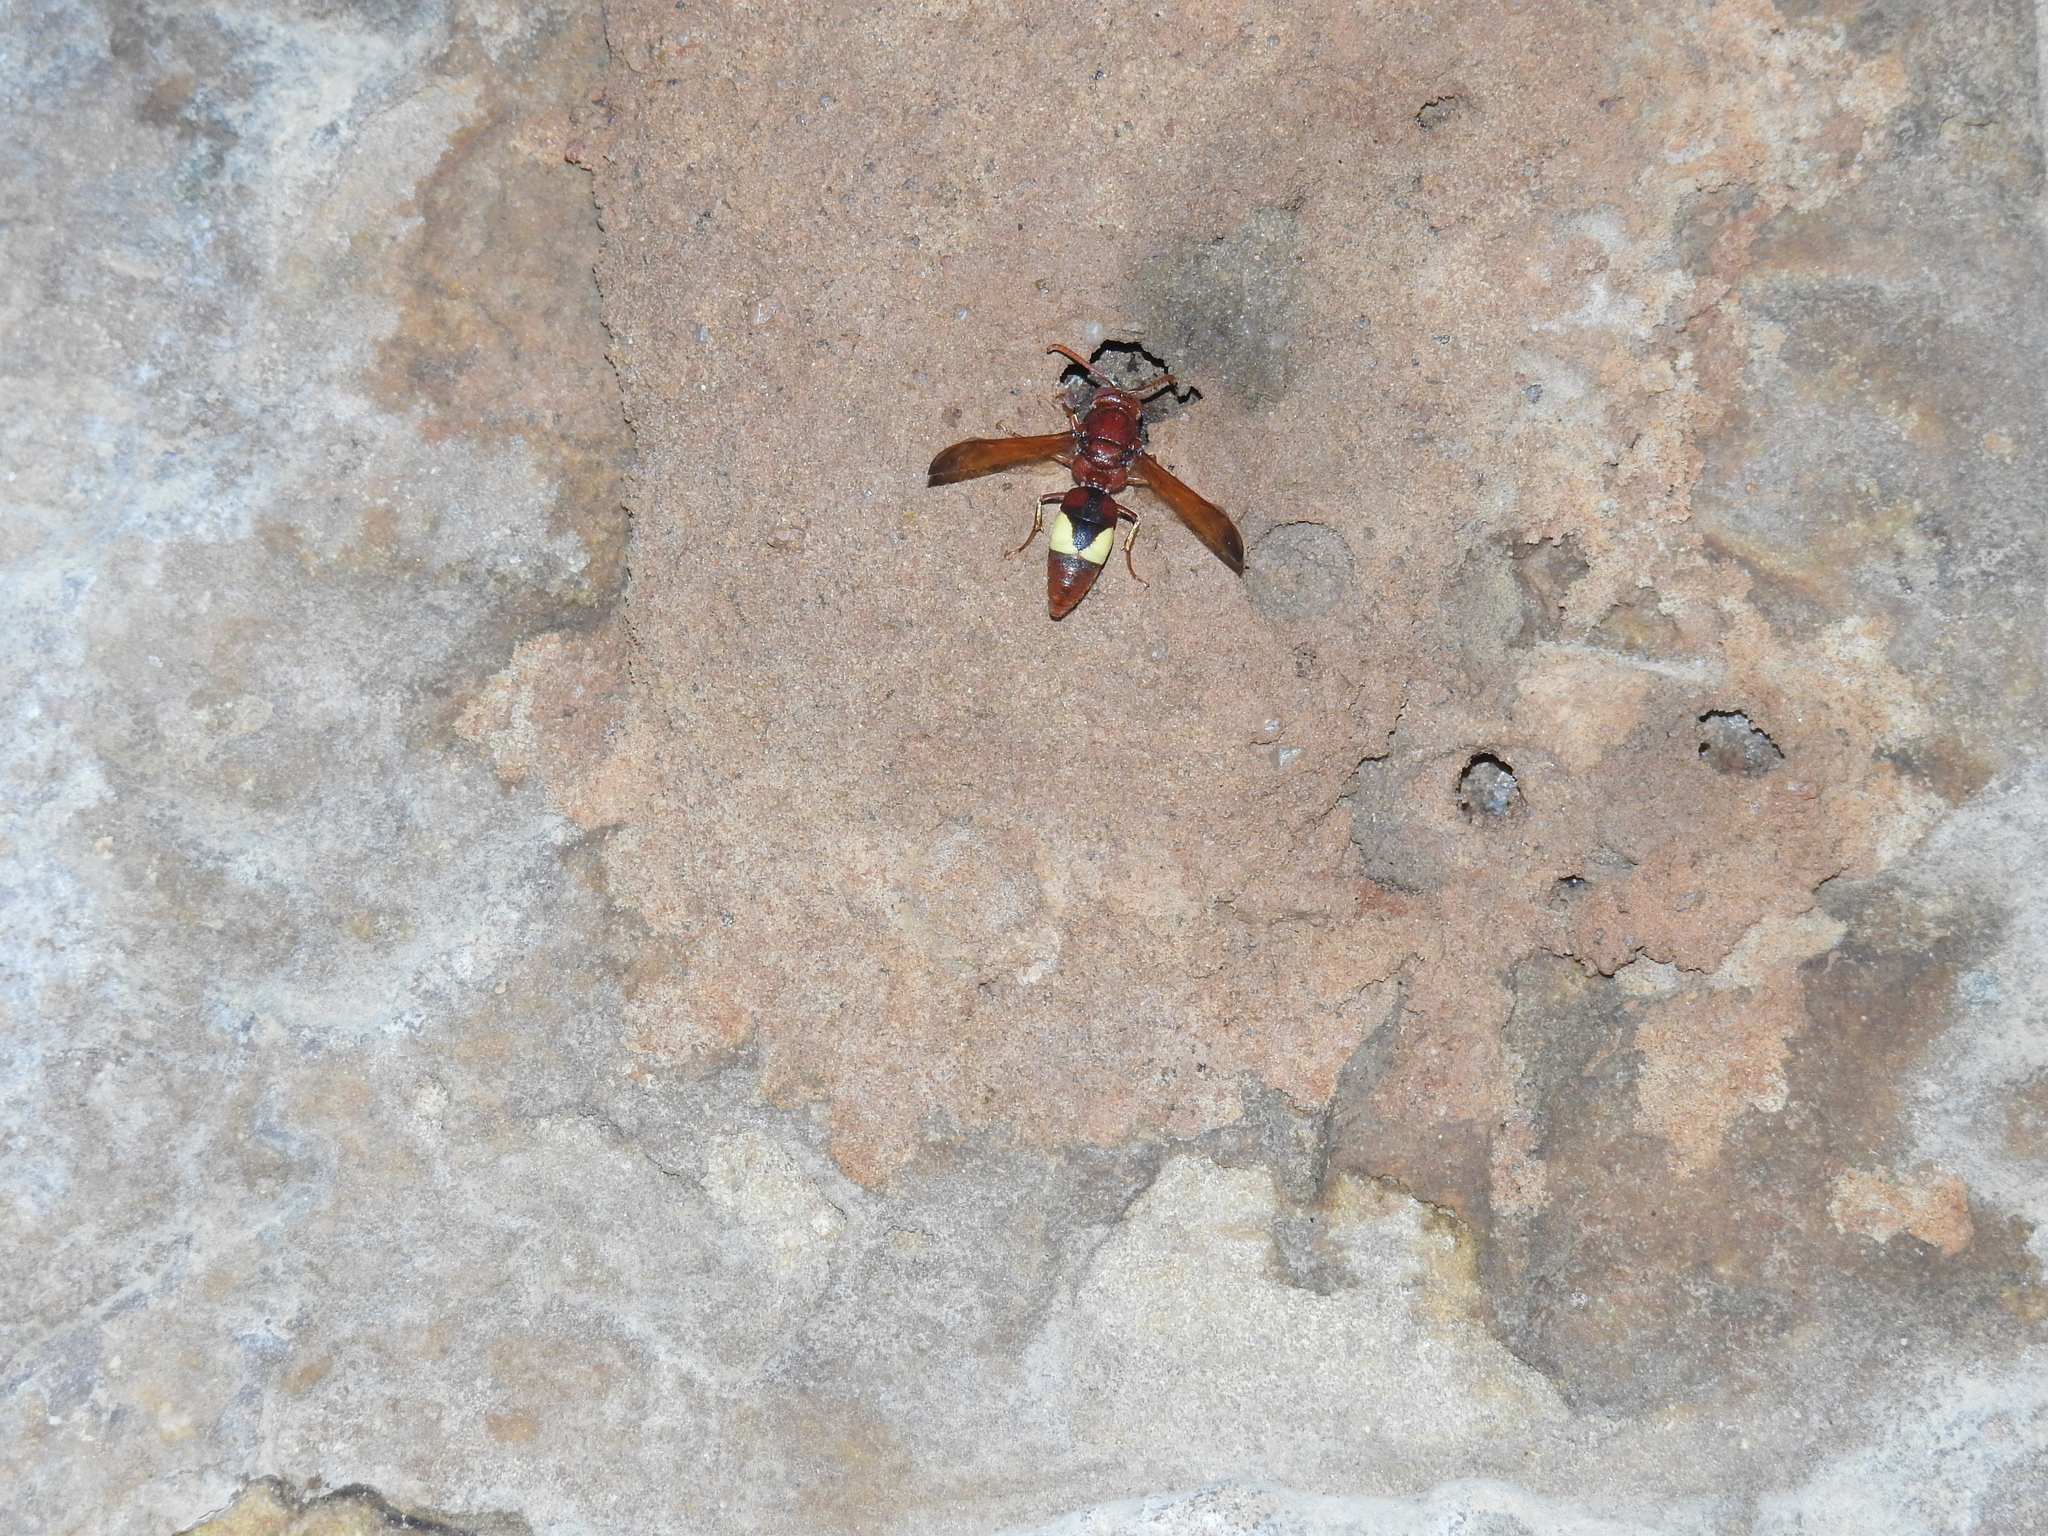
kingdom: Animalia
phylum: Arthropoda
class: Insecta
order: Hymenoptera
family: Eumenidae
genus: Rhynchium
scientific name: Rhynchium oculatum
